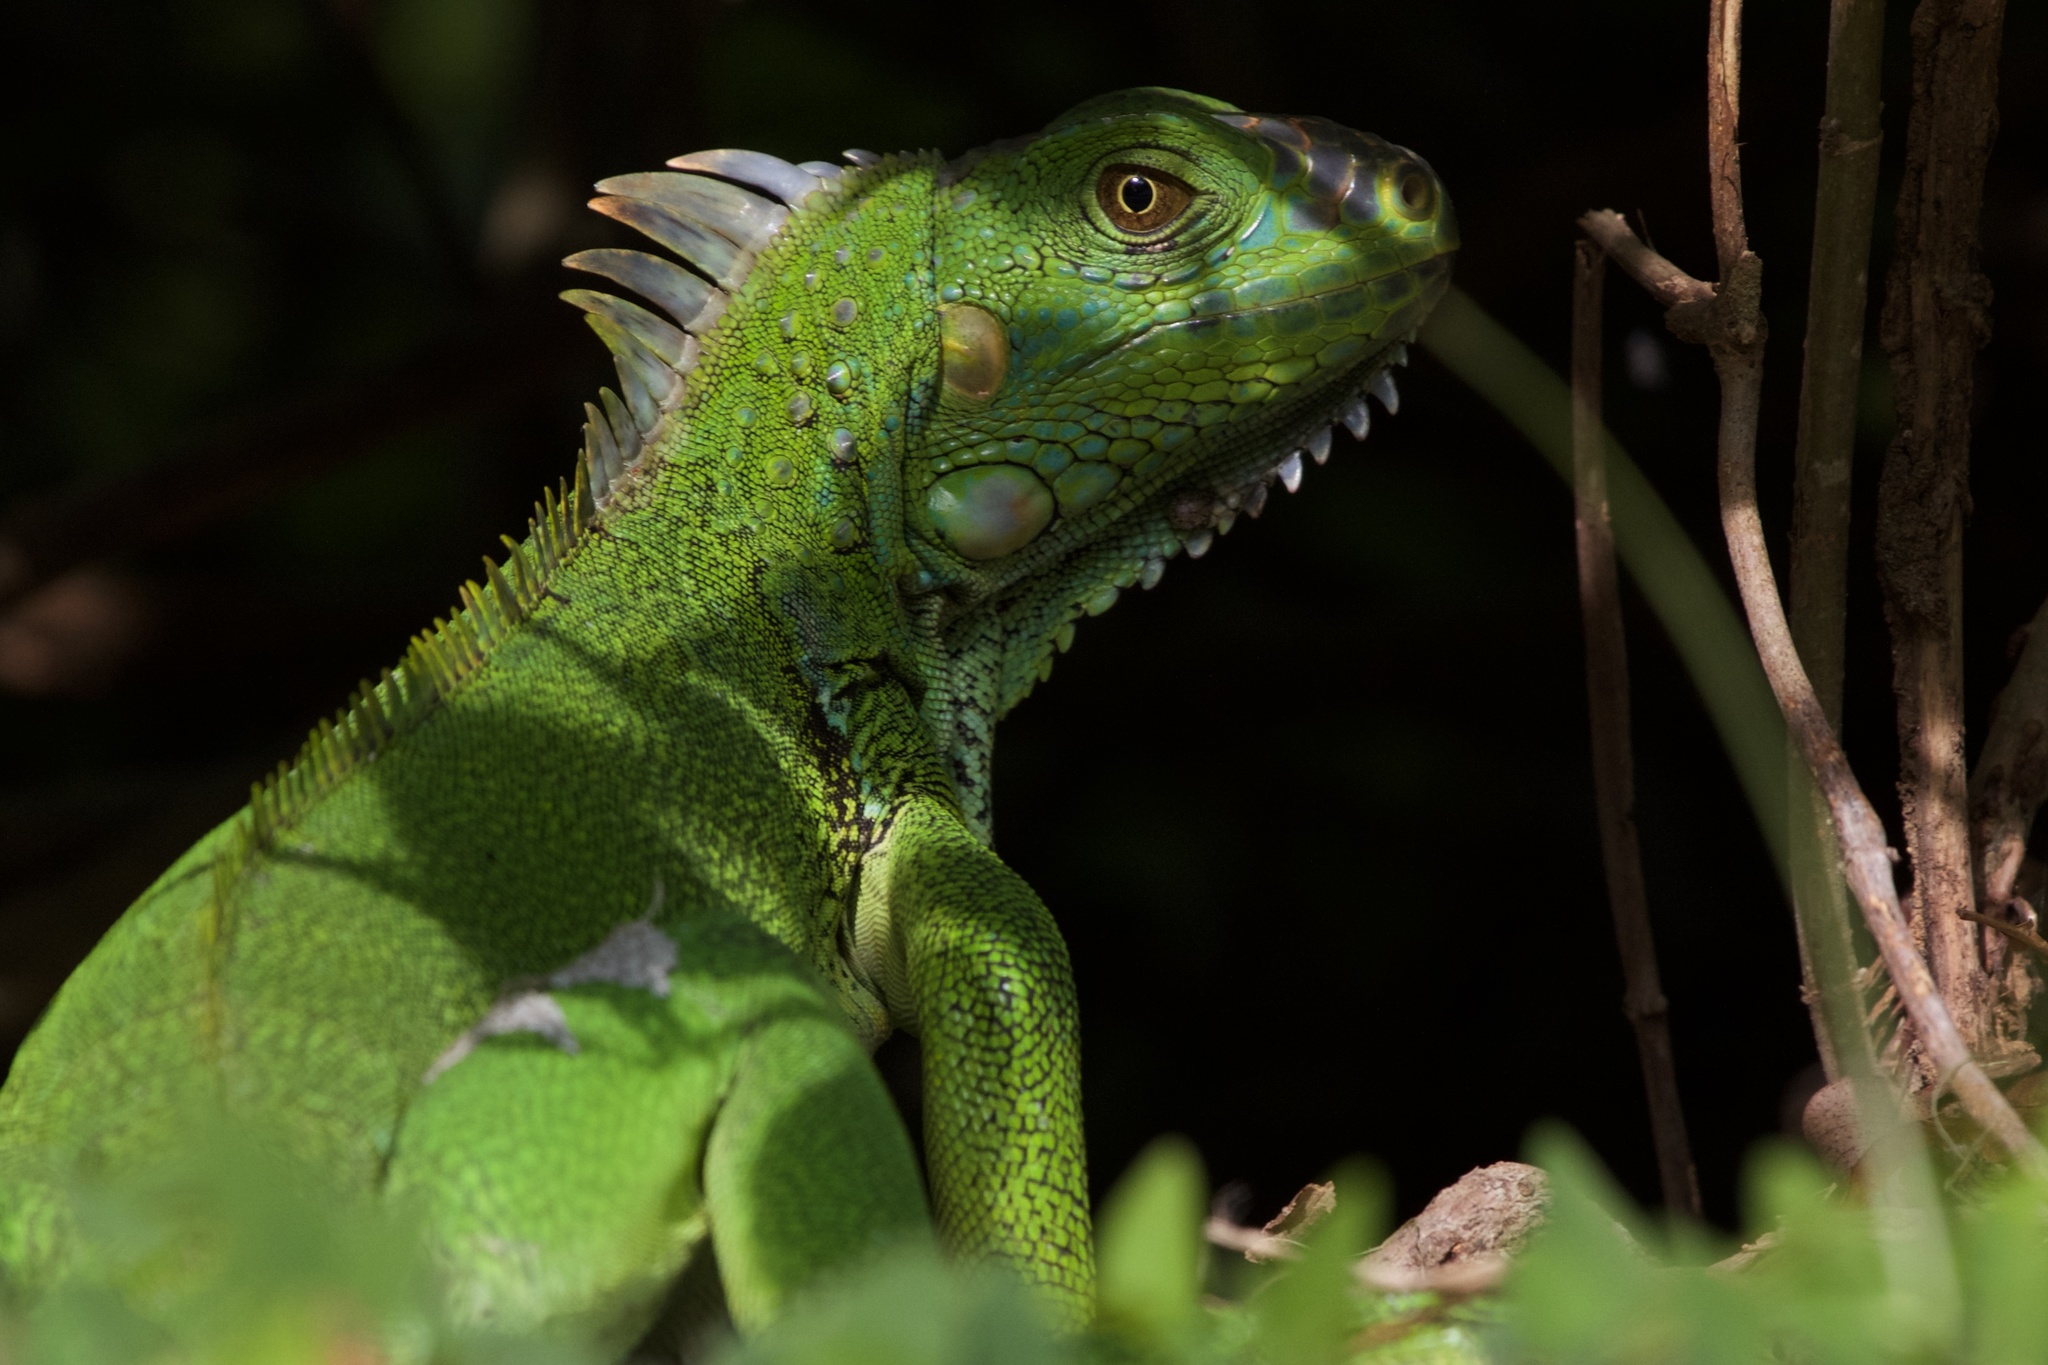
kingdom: Animalia
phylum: Chordata
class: Squamata
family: Iguanidae
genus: Iguana
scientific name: Iguana iguana
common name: Green iguana
